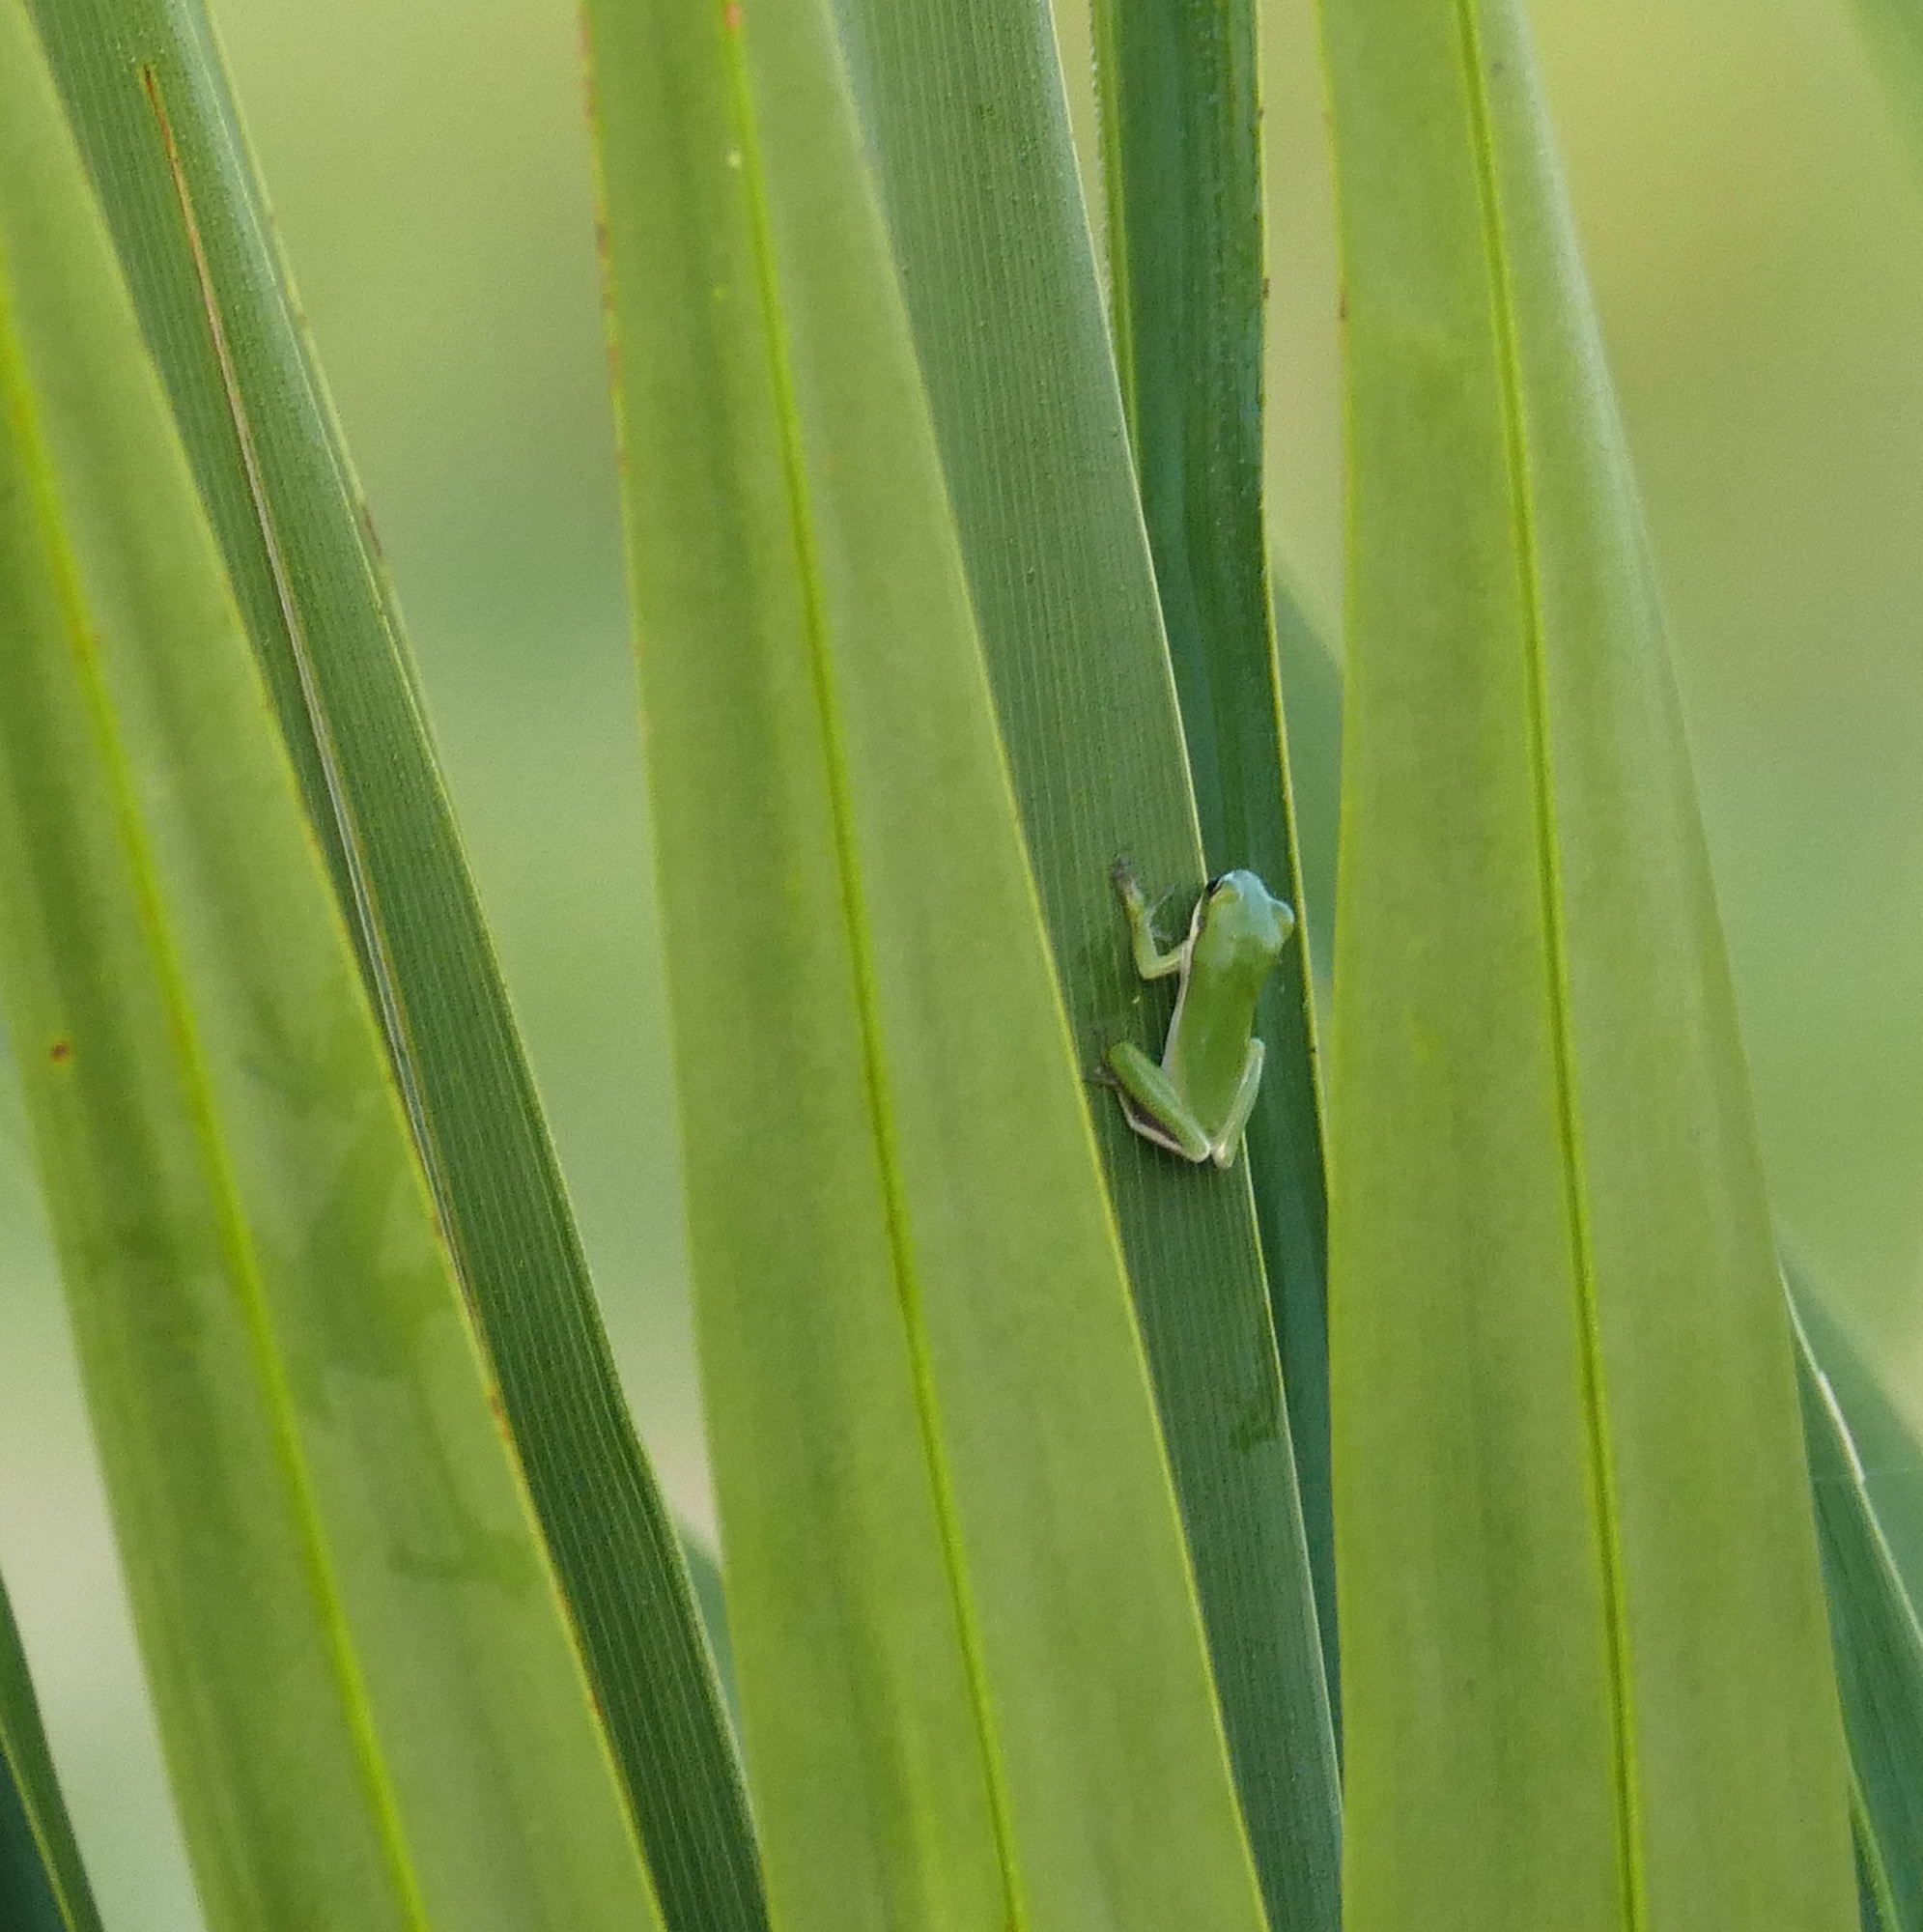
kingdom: Animalia
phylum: Chordata
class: Amphibia
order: Anura
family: Hylidae
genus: Dryophytes
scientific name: Dryophytes cinereus
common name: Green treefrog
